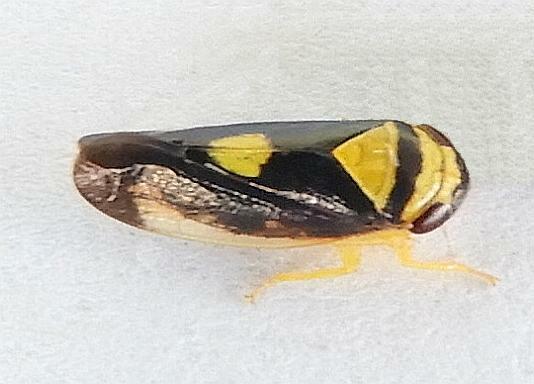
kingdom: Animalia
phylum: Arthropoda
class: Insecta
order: Hemiptera
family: Cicadellidae
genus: Eutettix
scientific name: Eutettix pictus
